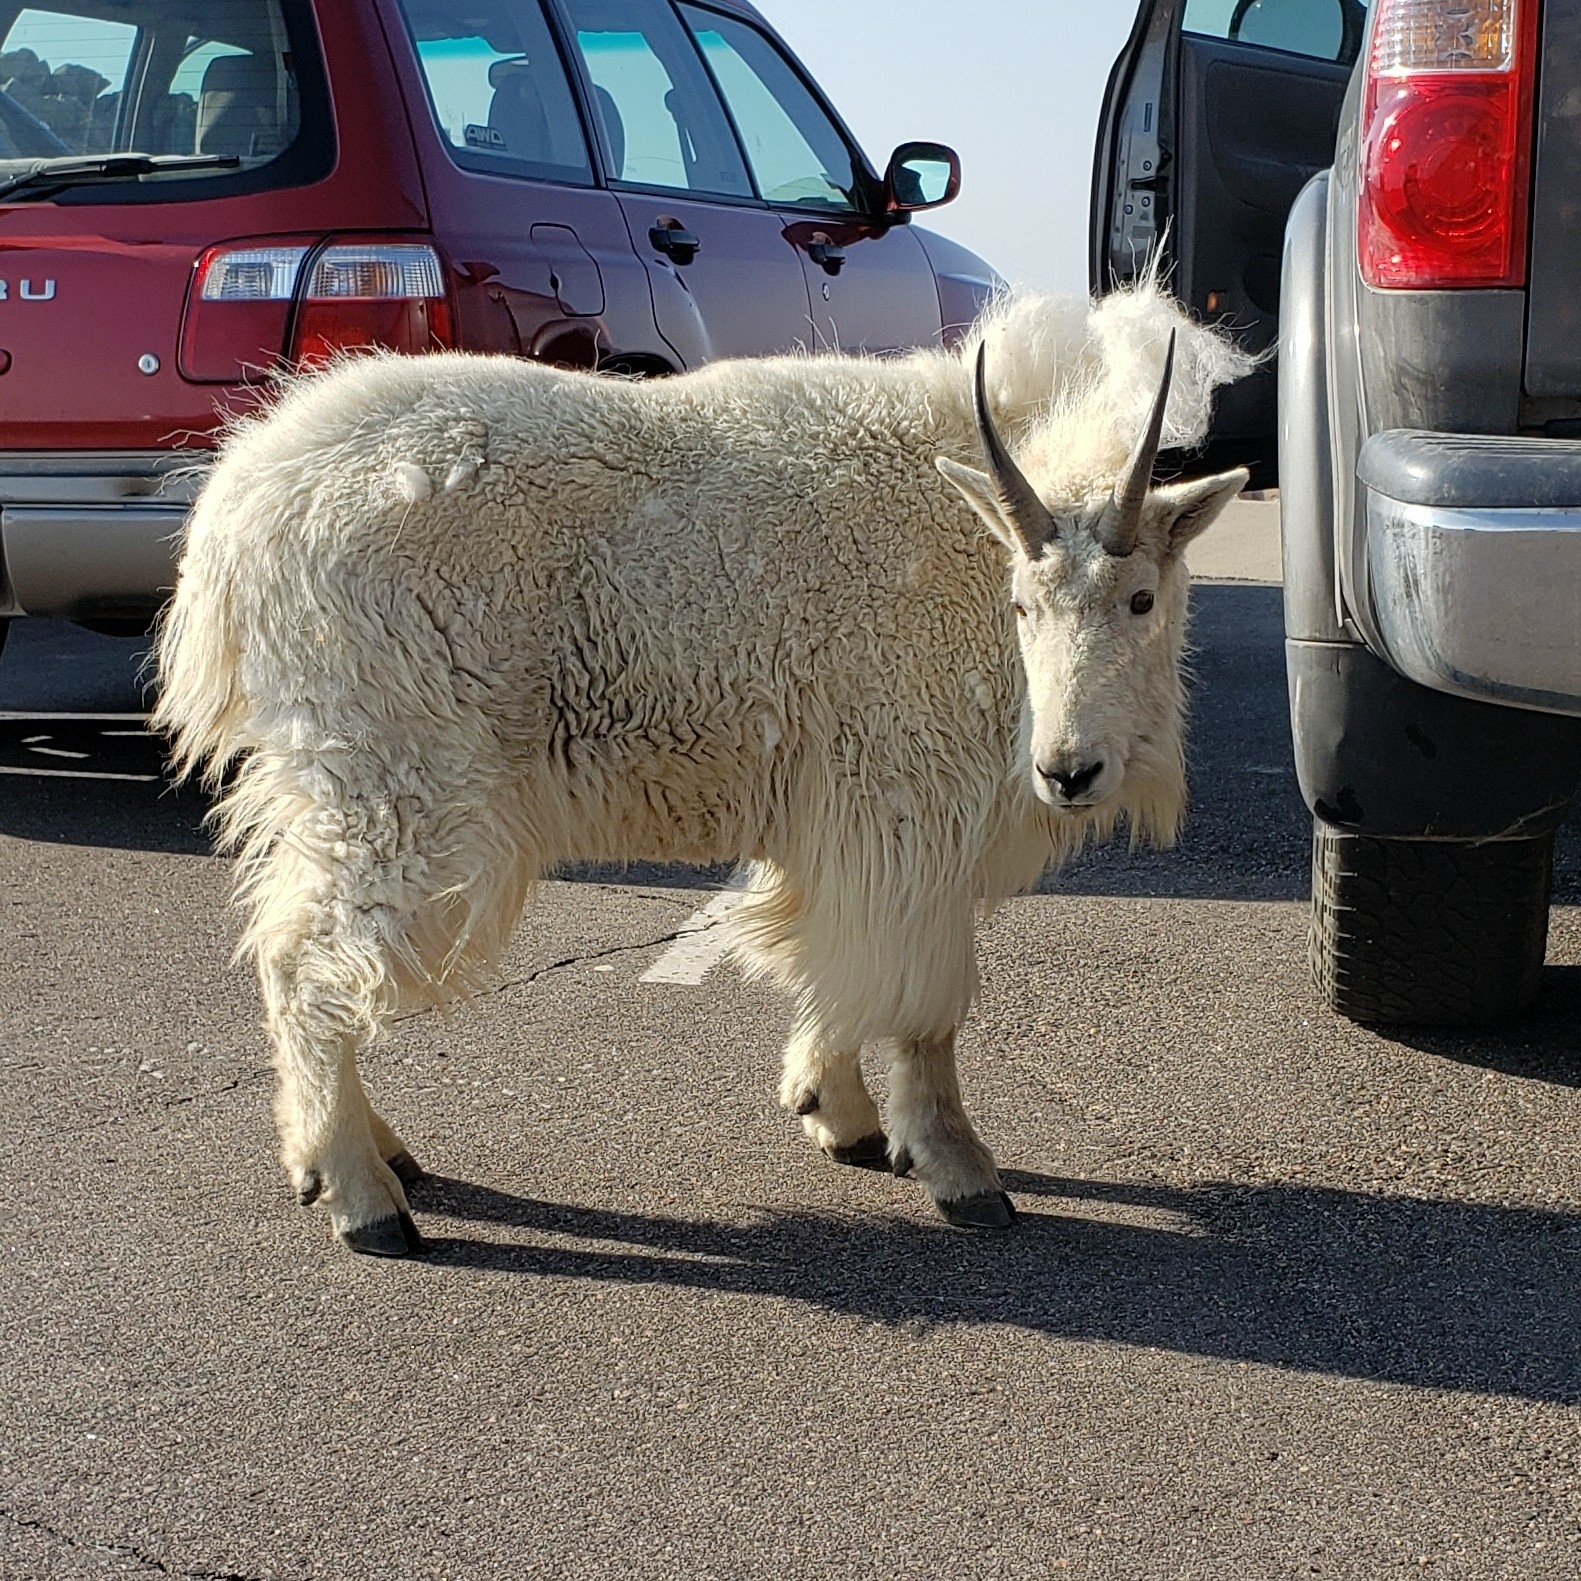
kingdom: Animalia
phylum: Chordata
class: Mammalia
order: Artiodactyla
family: Bovidae
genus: Oreamnos
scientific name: Oreamnos americanus
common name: Mountain goat
